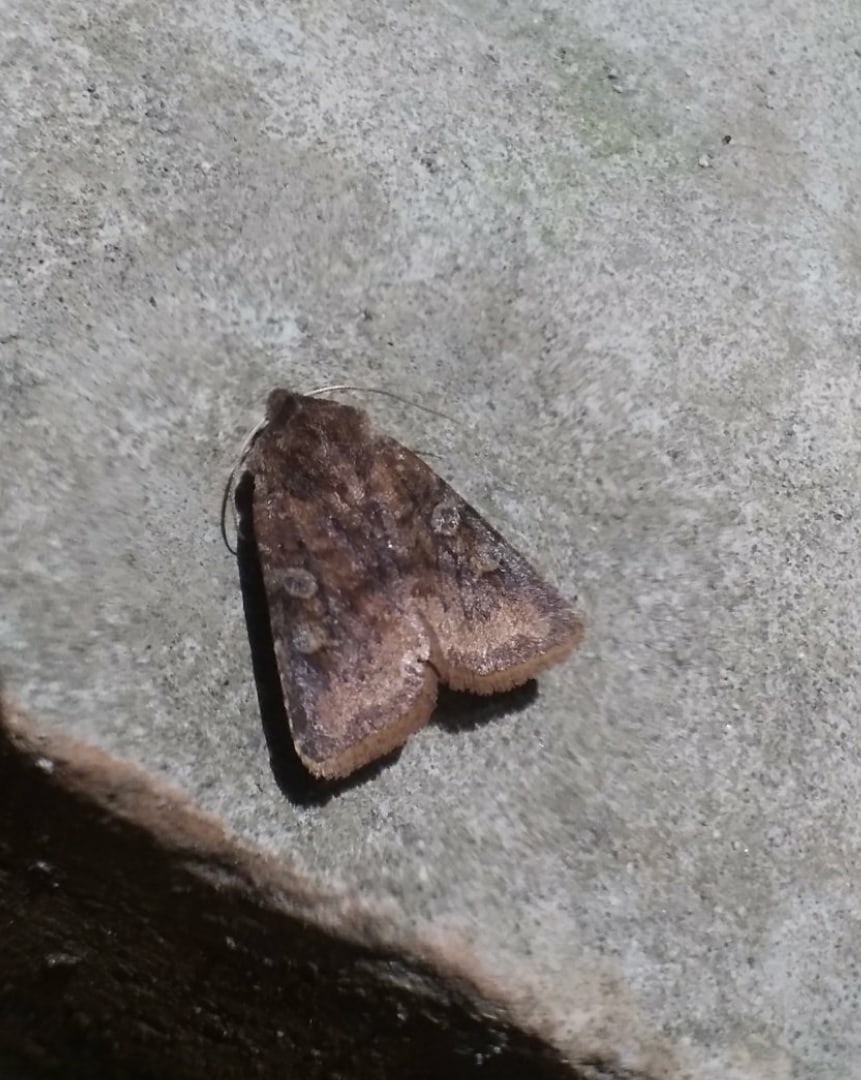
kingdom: Animalia
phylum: Arthropoda
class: Insecta
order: Lepidoptera
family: Noctuidae
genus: Cerastis
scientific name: Cerastis leucographa
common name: White-marked
